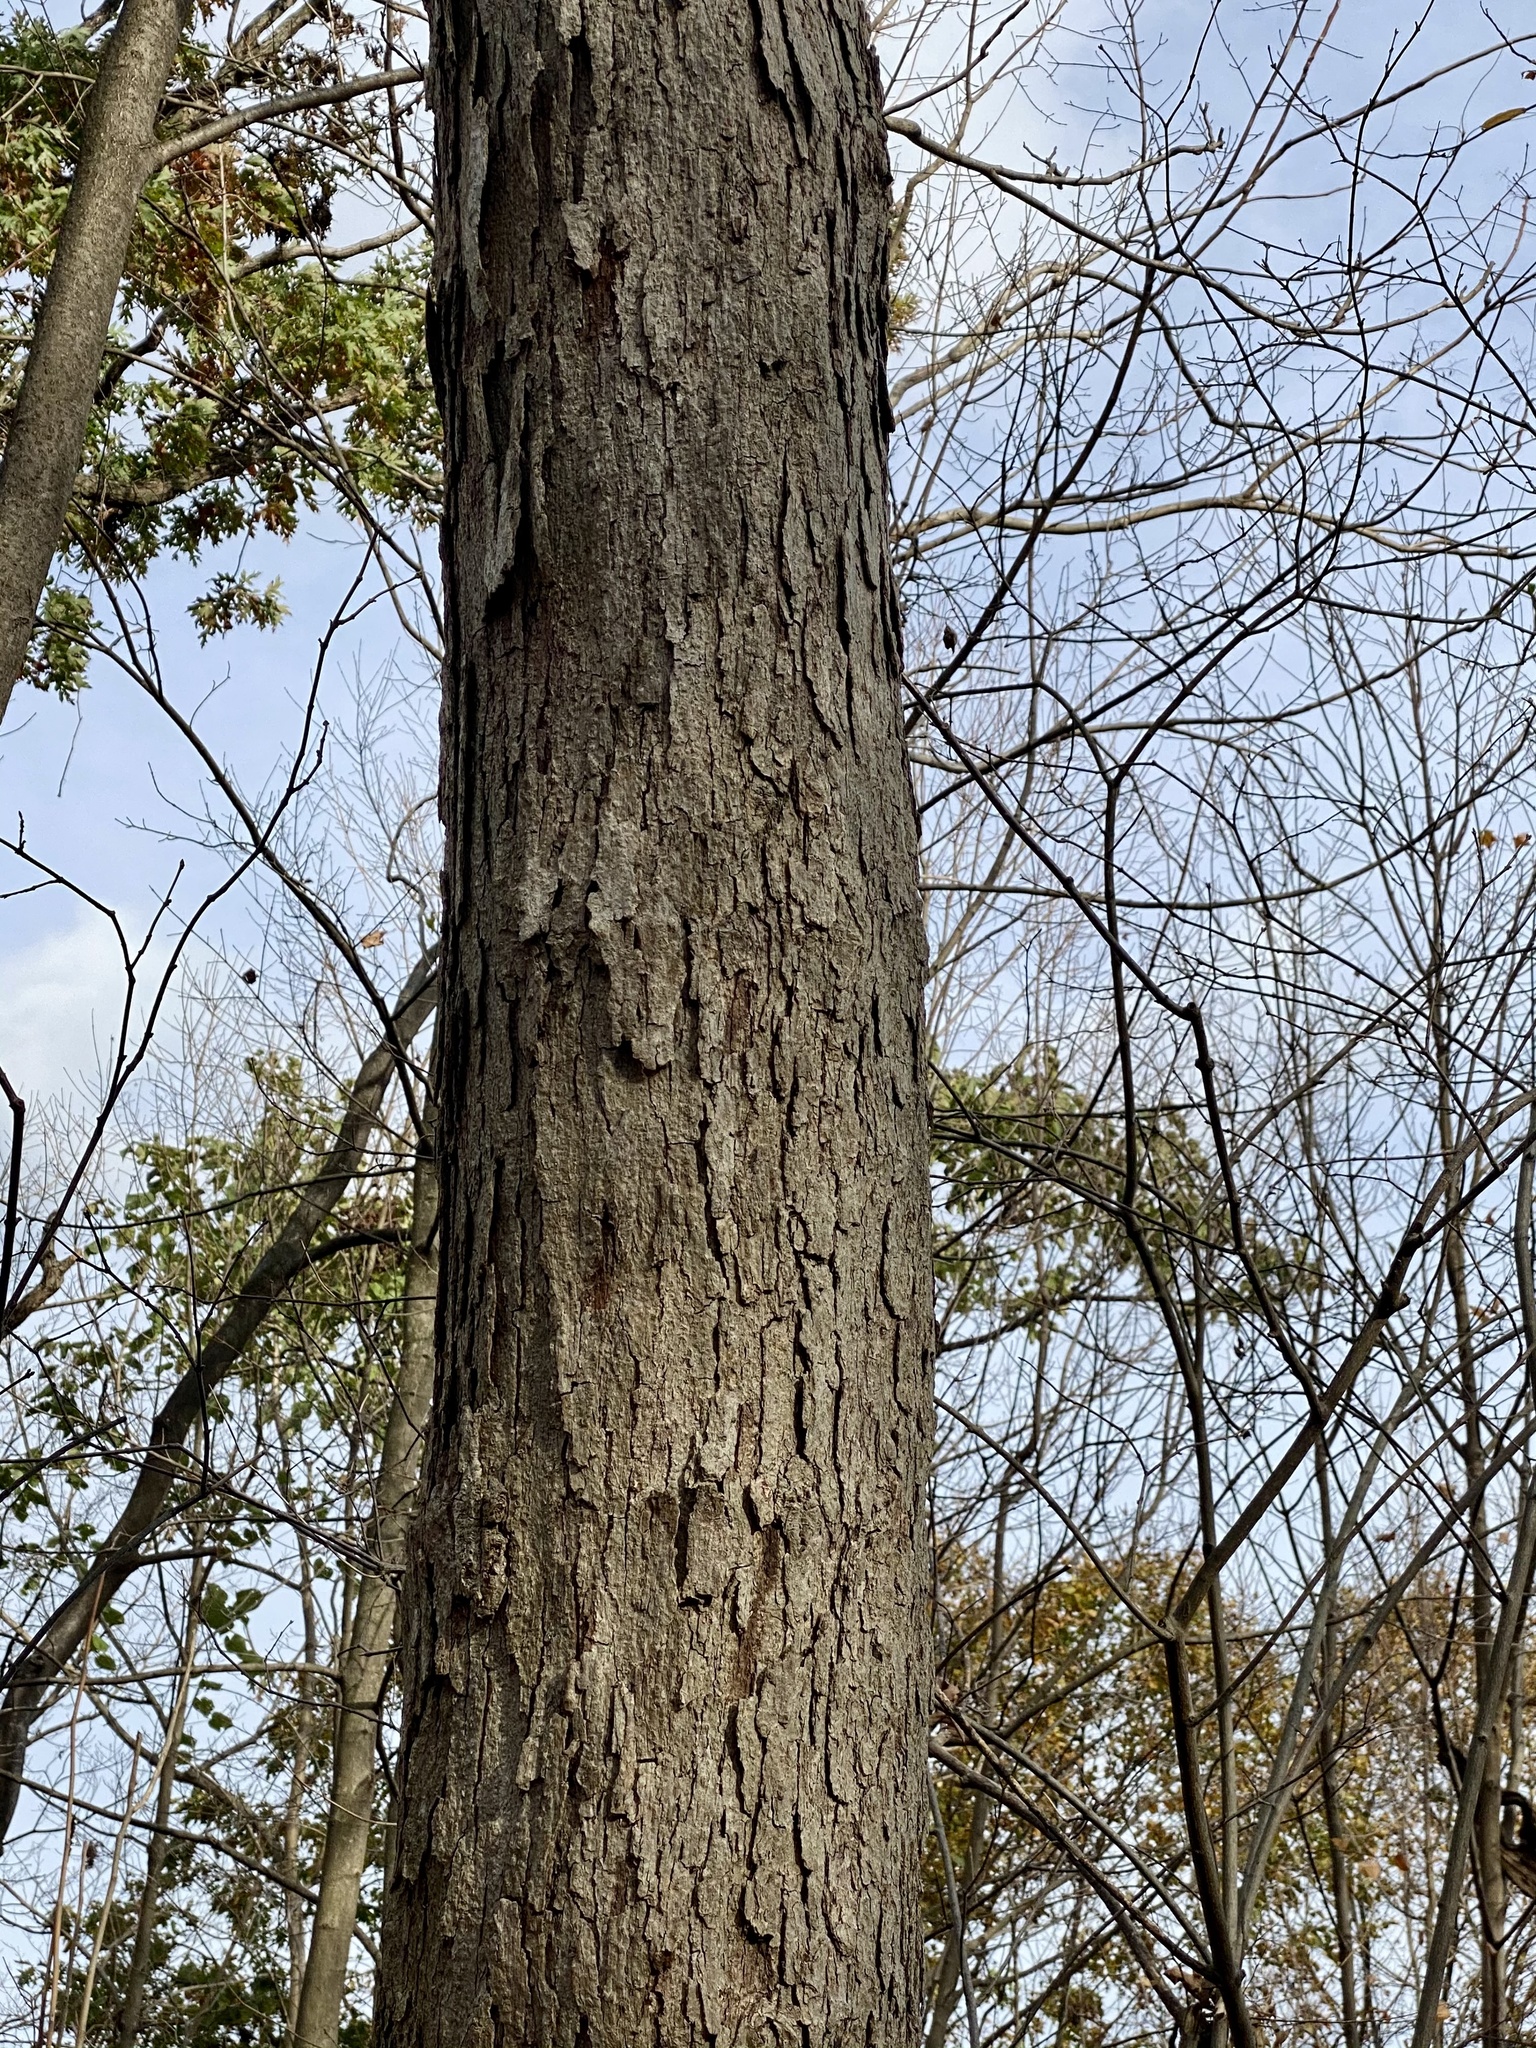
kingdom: Plantae
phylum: Tracheophyta
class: Magnoliopsida
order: Fagales
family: Fagaceae
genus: Quercus
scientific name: Quercus alba
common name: White oak
